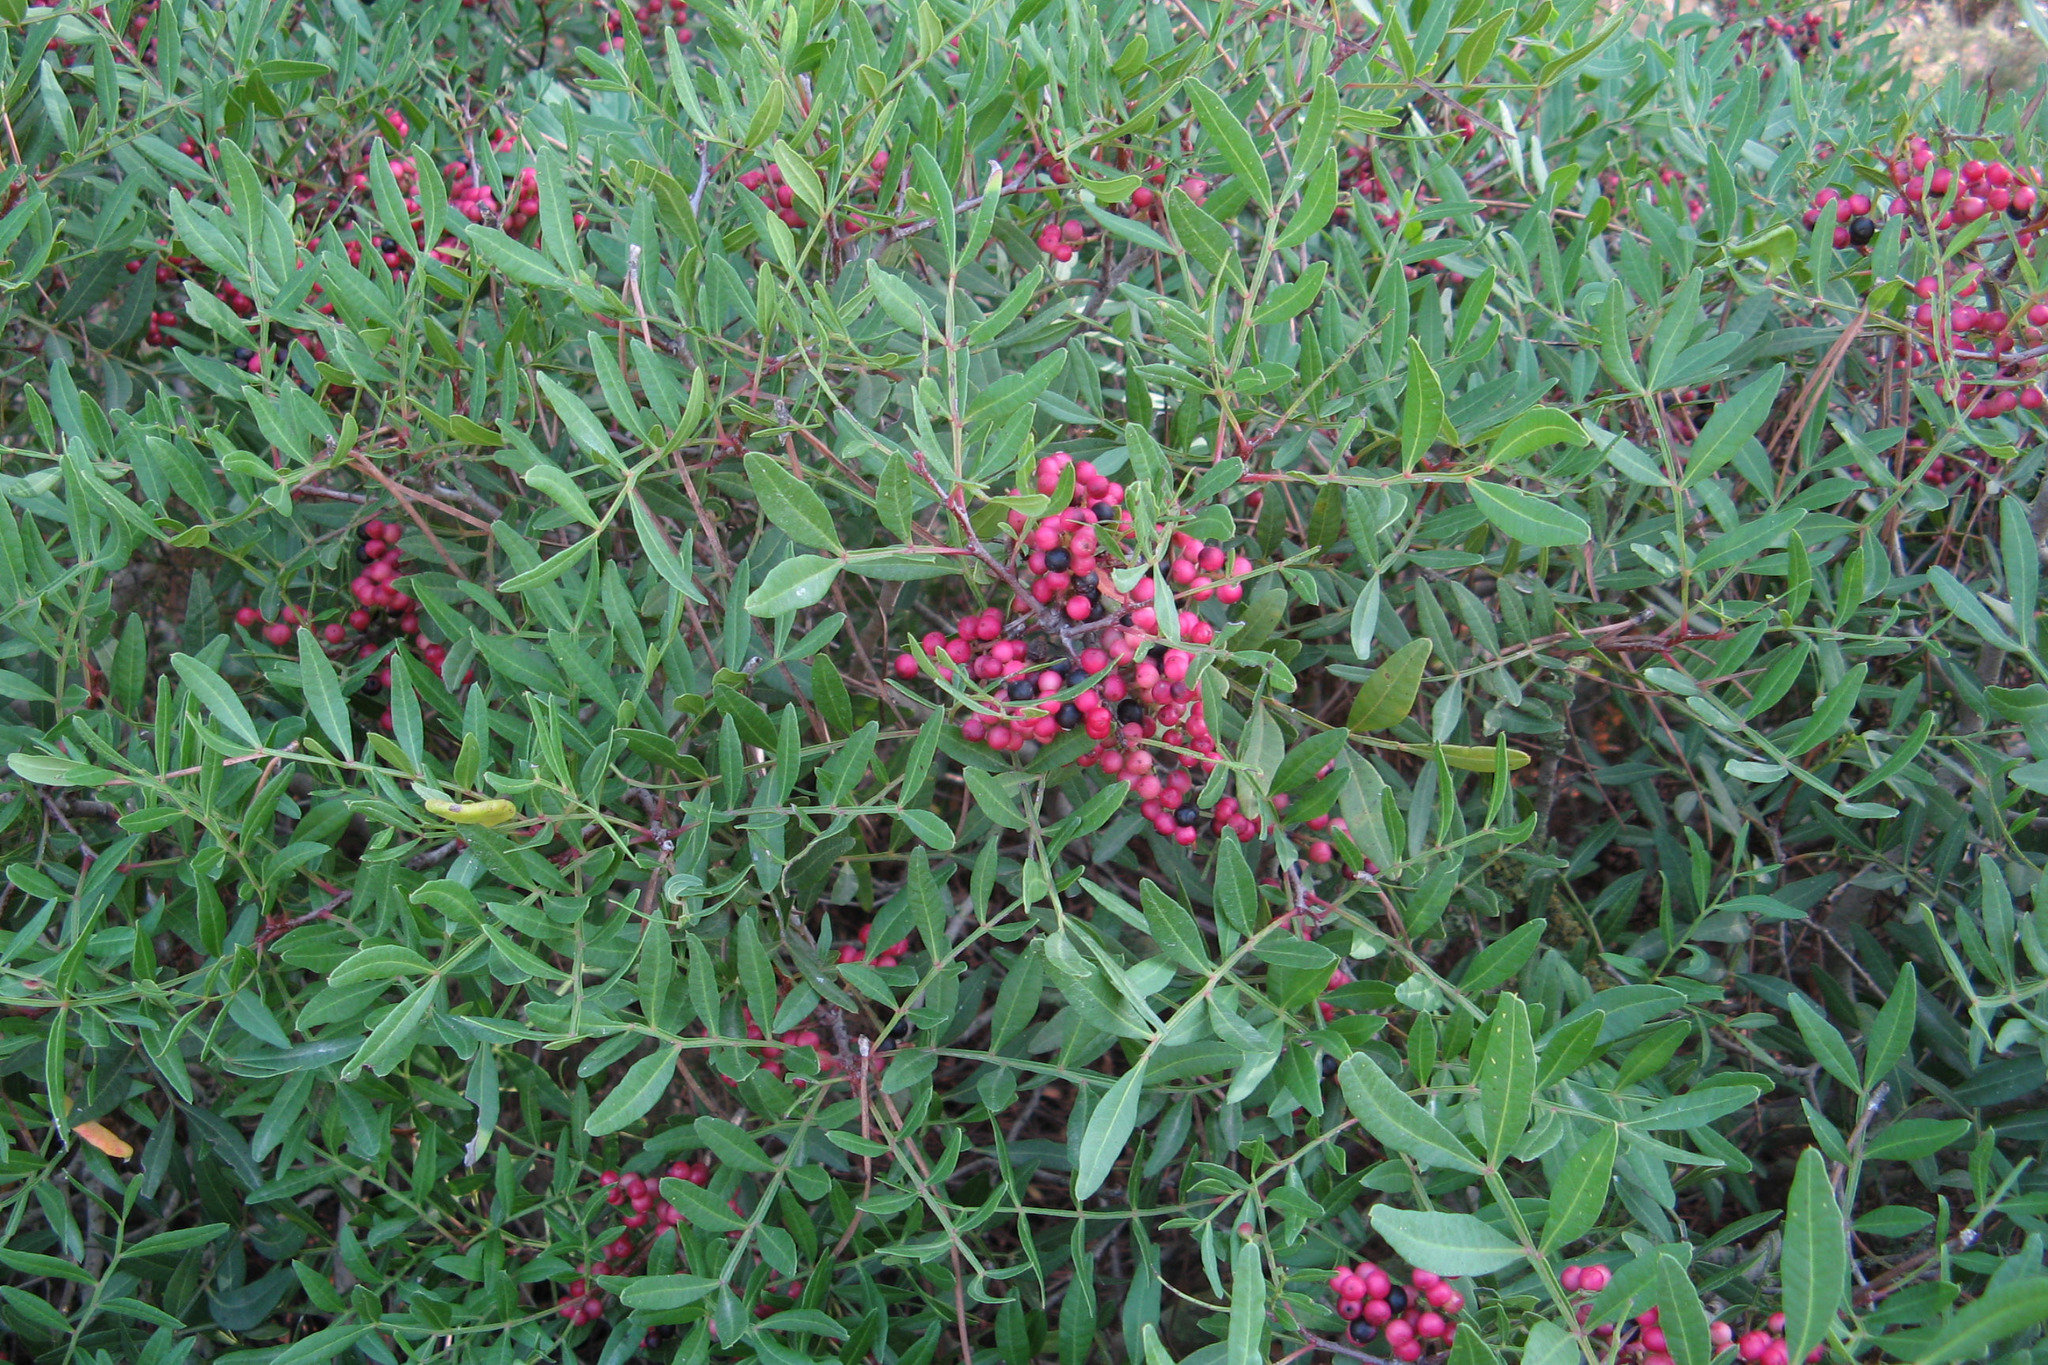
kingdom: Plantae
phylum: Tracheophyta
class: Magnoliopsida
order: Sapindales
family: Anacardiaceae
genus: Pistacia
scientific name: Pistacia lentiscus
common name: Lentisk
